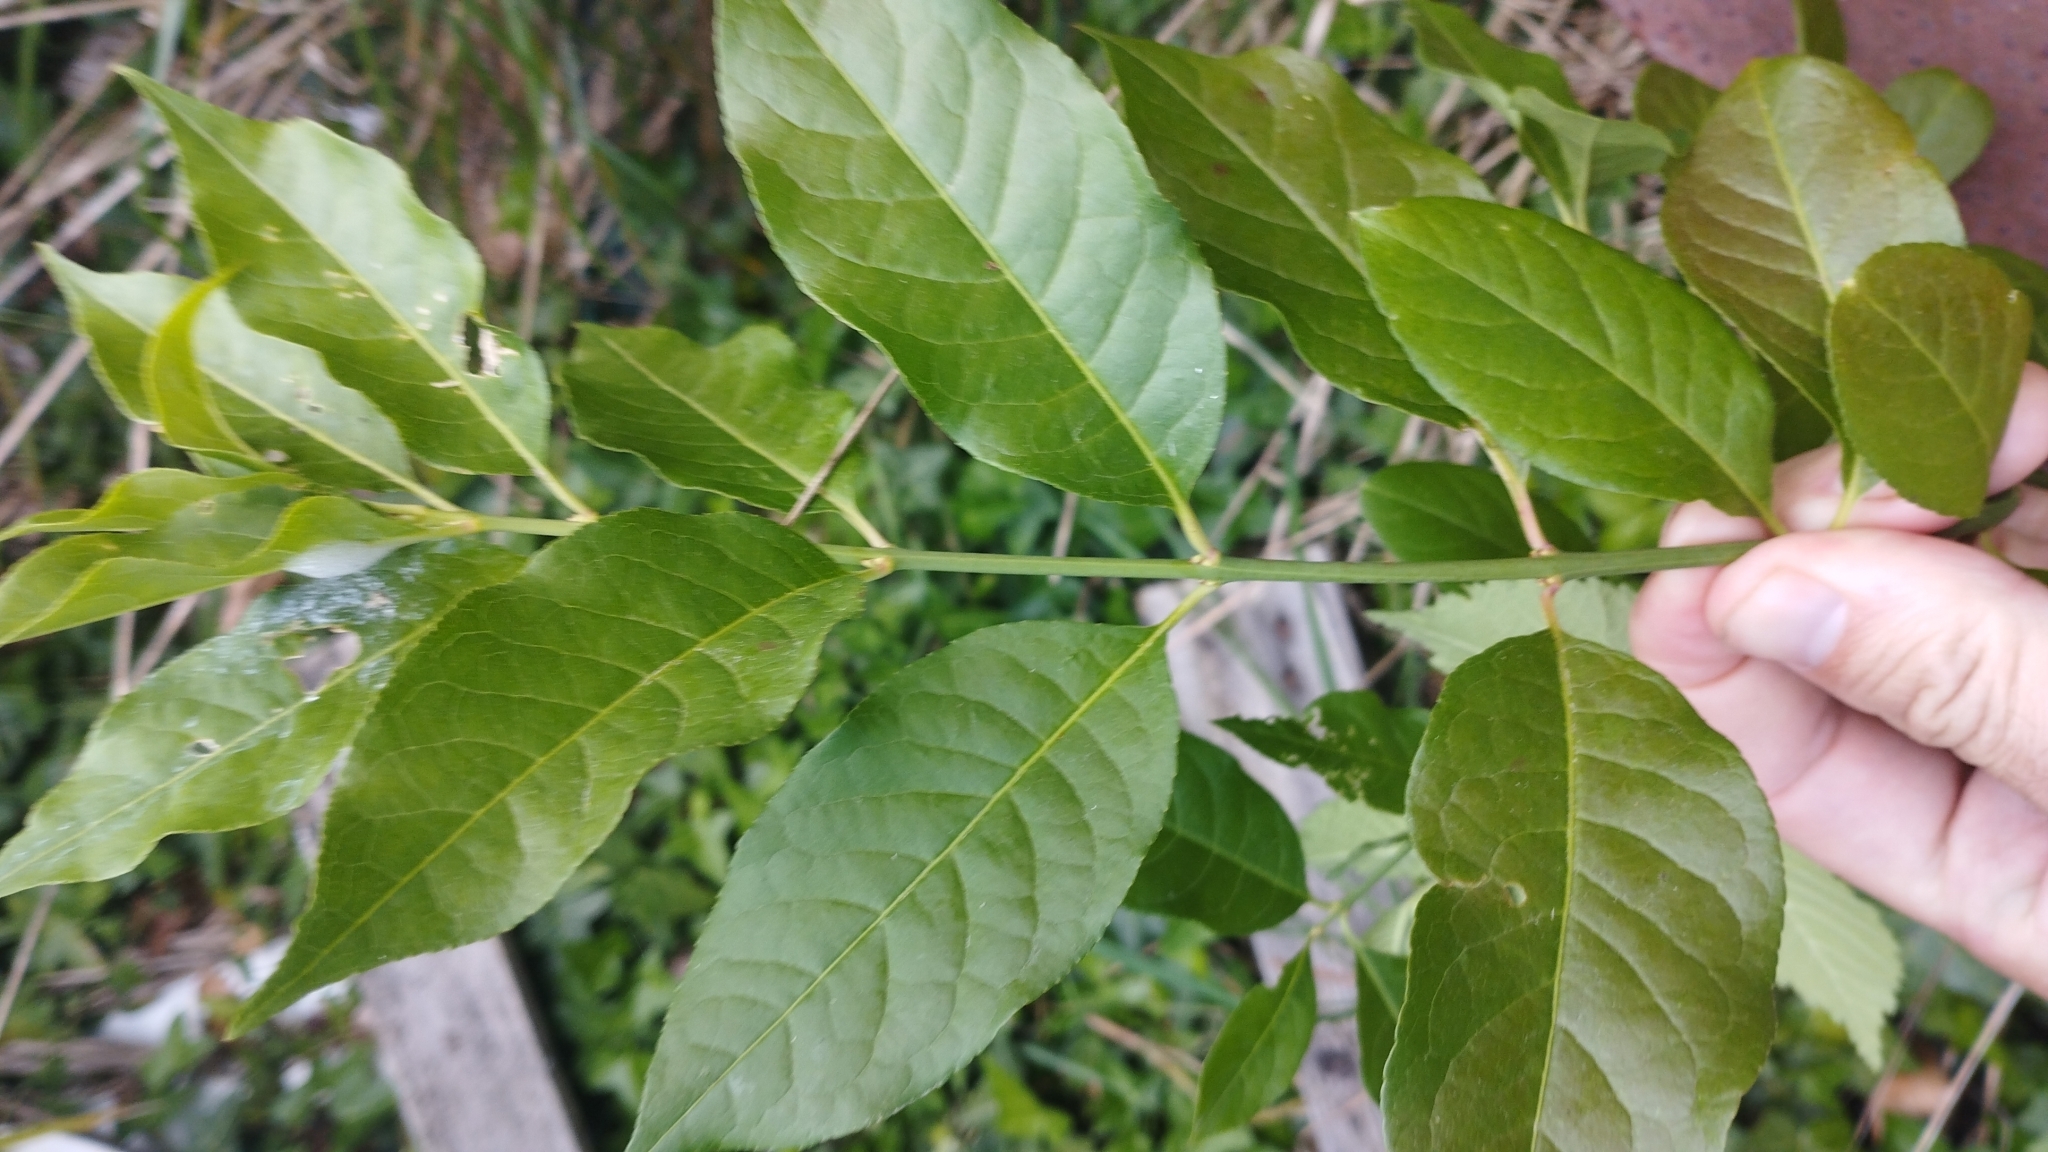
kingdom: Plantae
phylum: Tracheophyta
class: Magnoliopsida
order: Celastrales
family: Celastraceae
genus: Euonymus
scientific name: Euonymus europaeus
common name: Spindle
